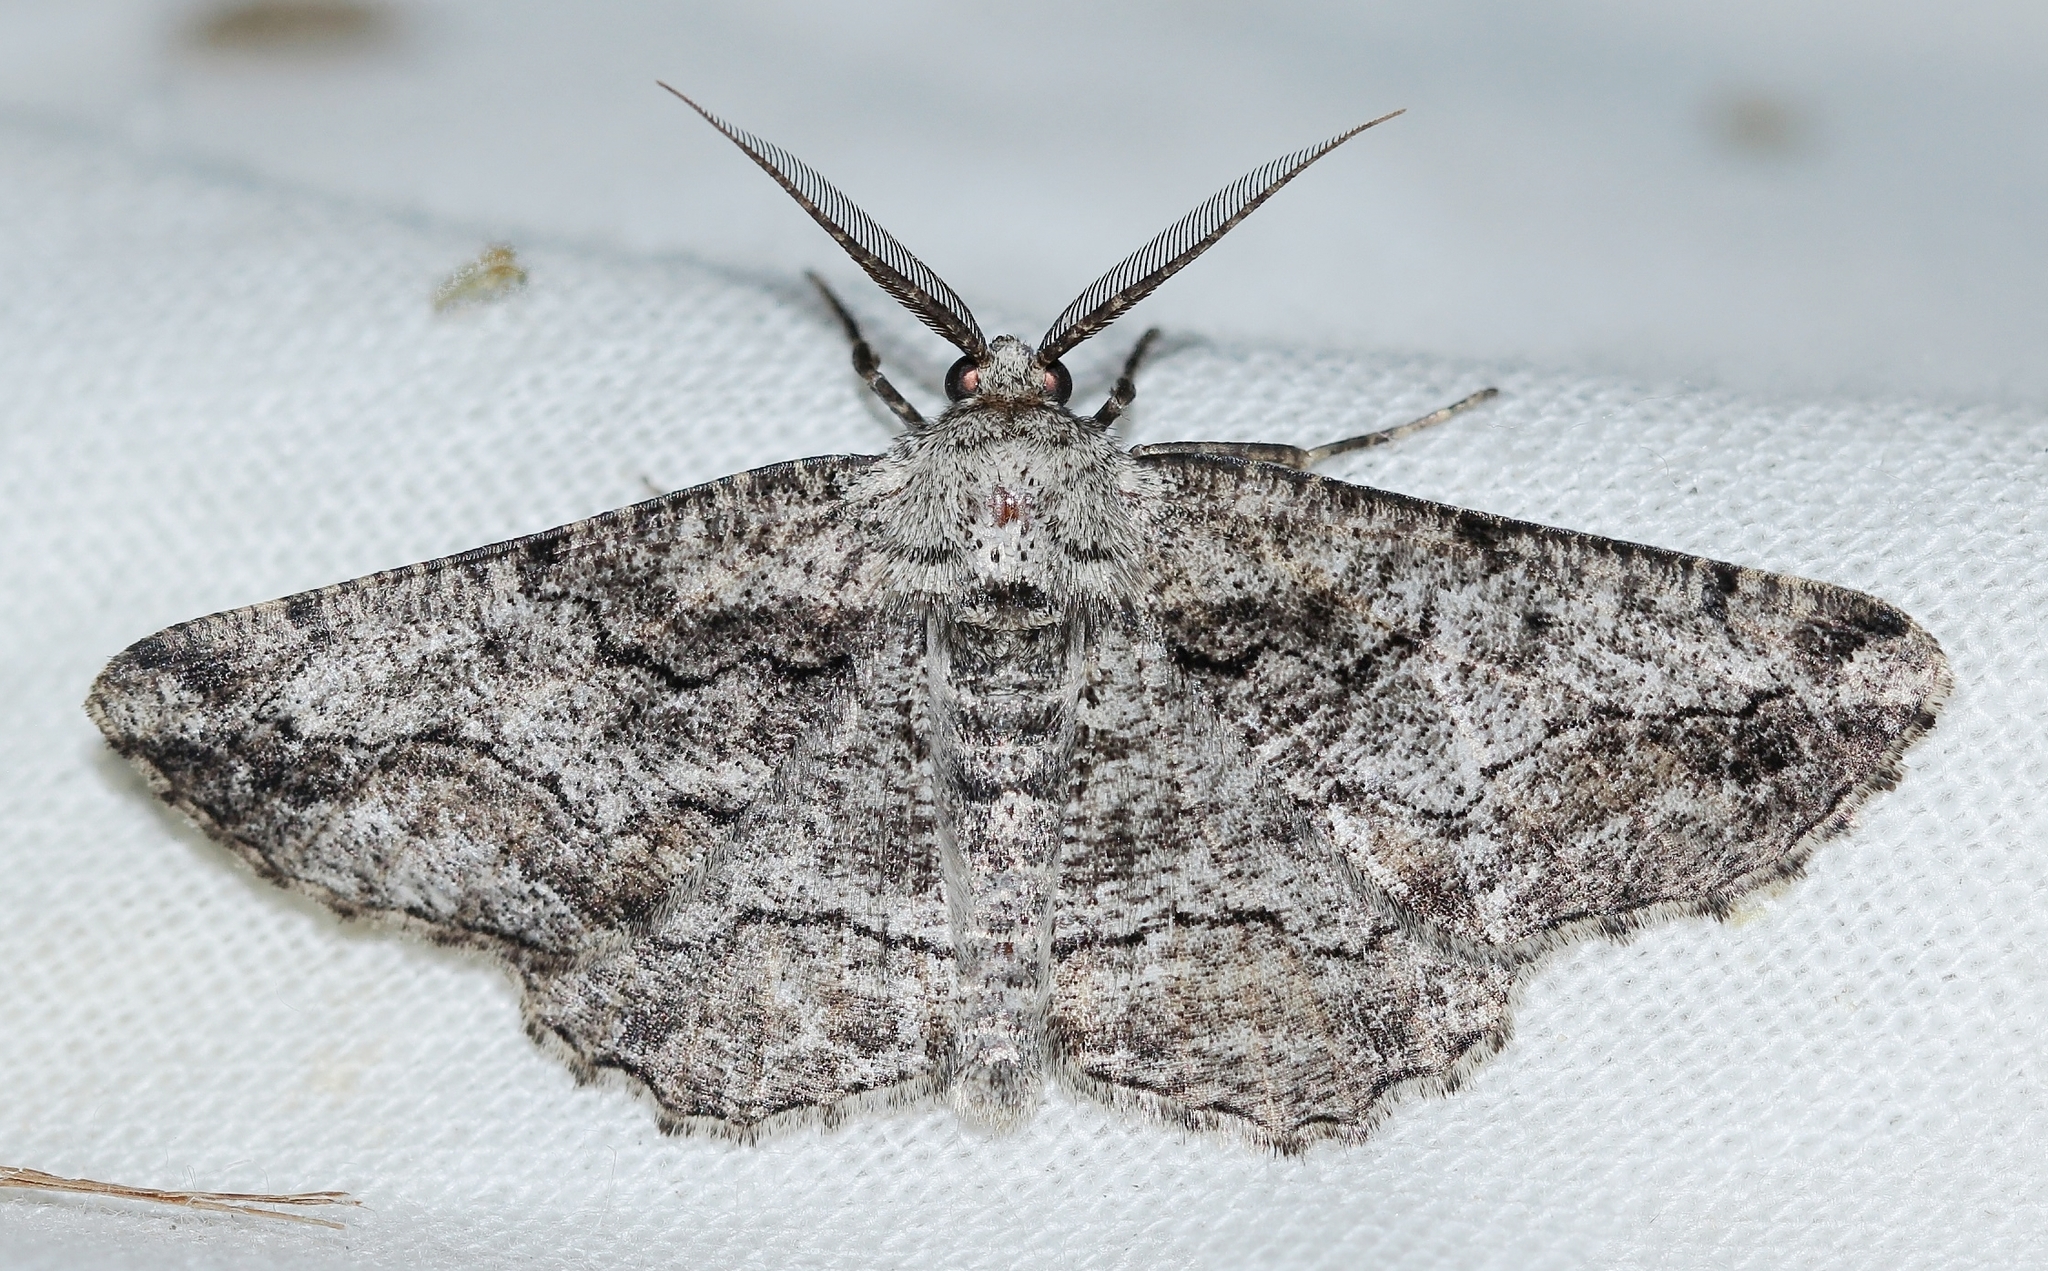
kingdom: Animalia
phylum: Arthropoda
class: Insecta
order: Lepidoptera
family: Geometridae
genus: Synopsia
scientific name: Synopsia sociaria
